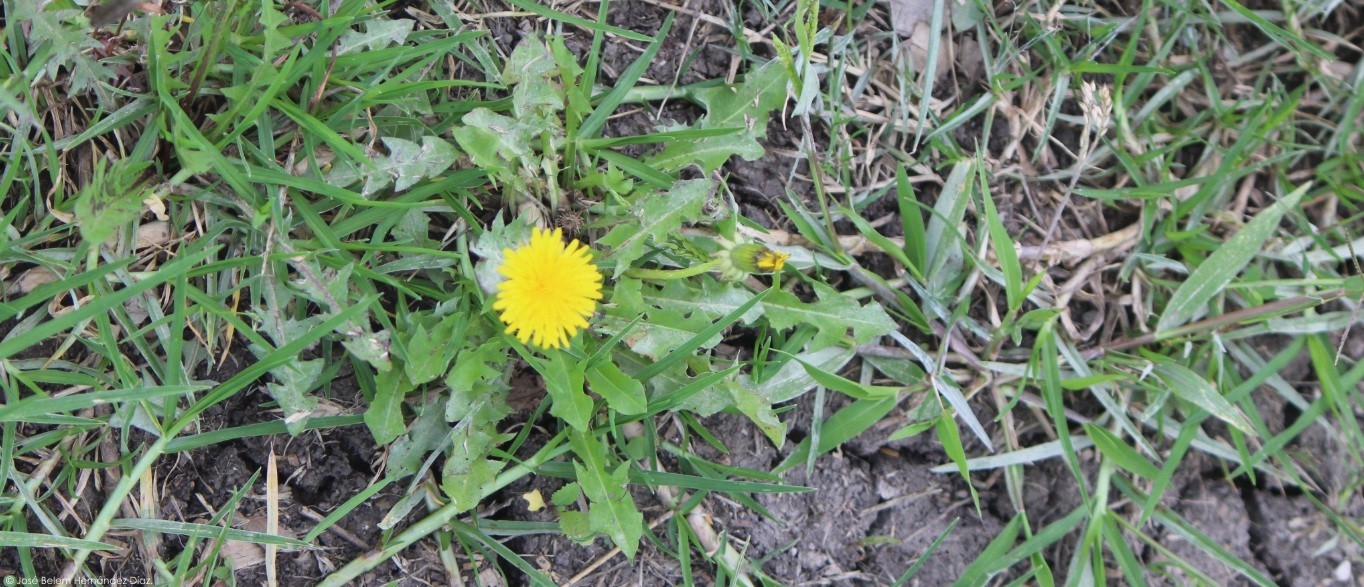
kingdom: Plantae
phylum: Tracheophyta
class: Magnoliopsida
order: Asterales
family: Asteraceae
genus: Taraxacum
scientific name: Taraxacum officinale
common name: Common dandelion
